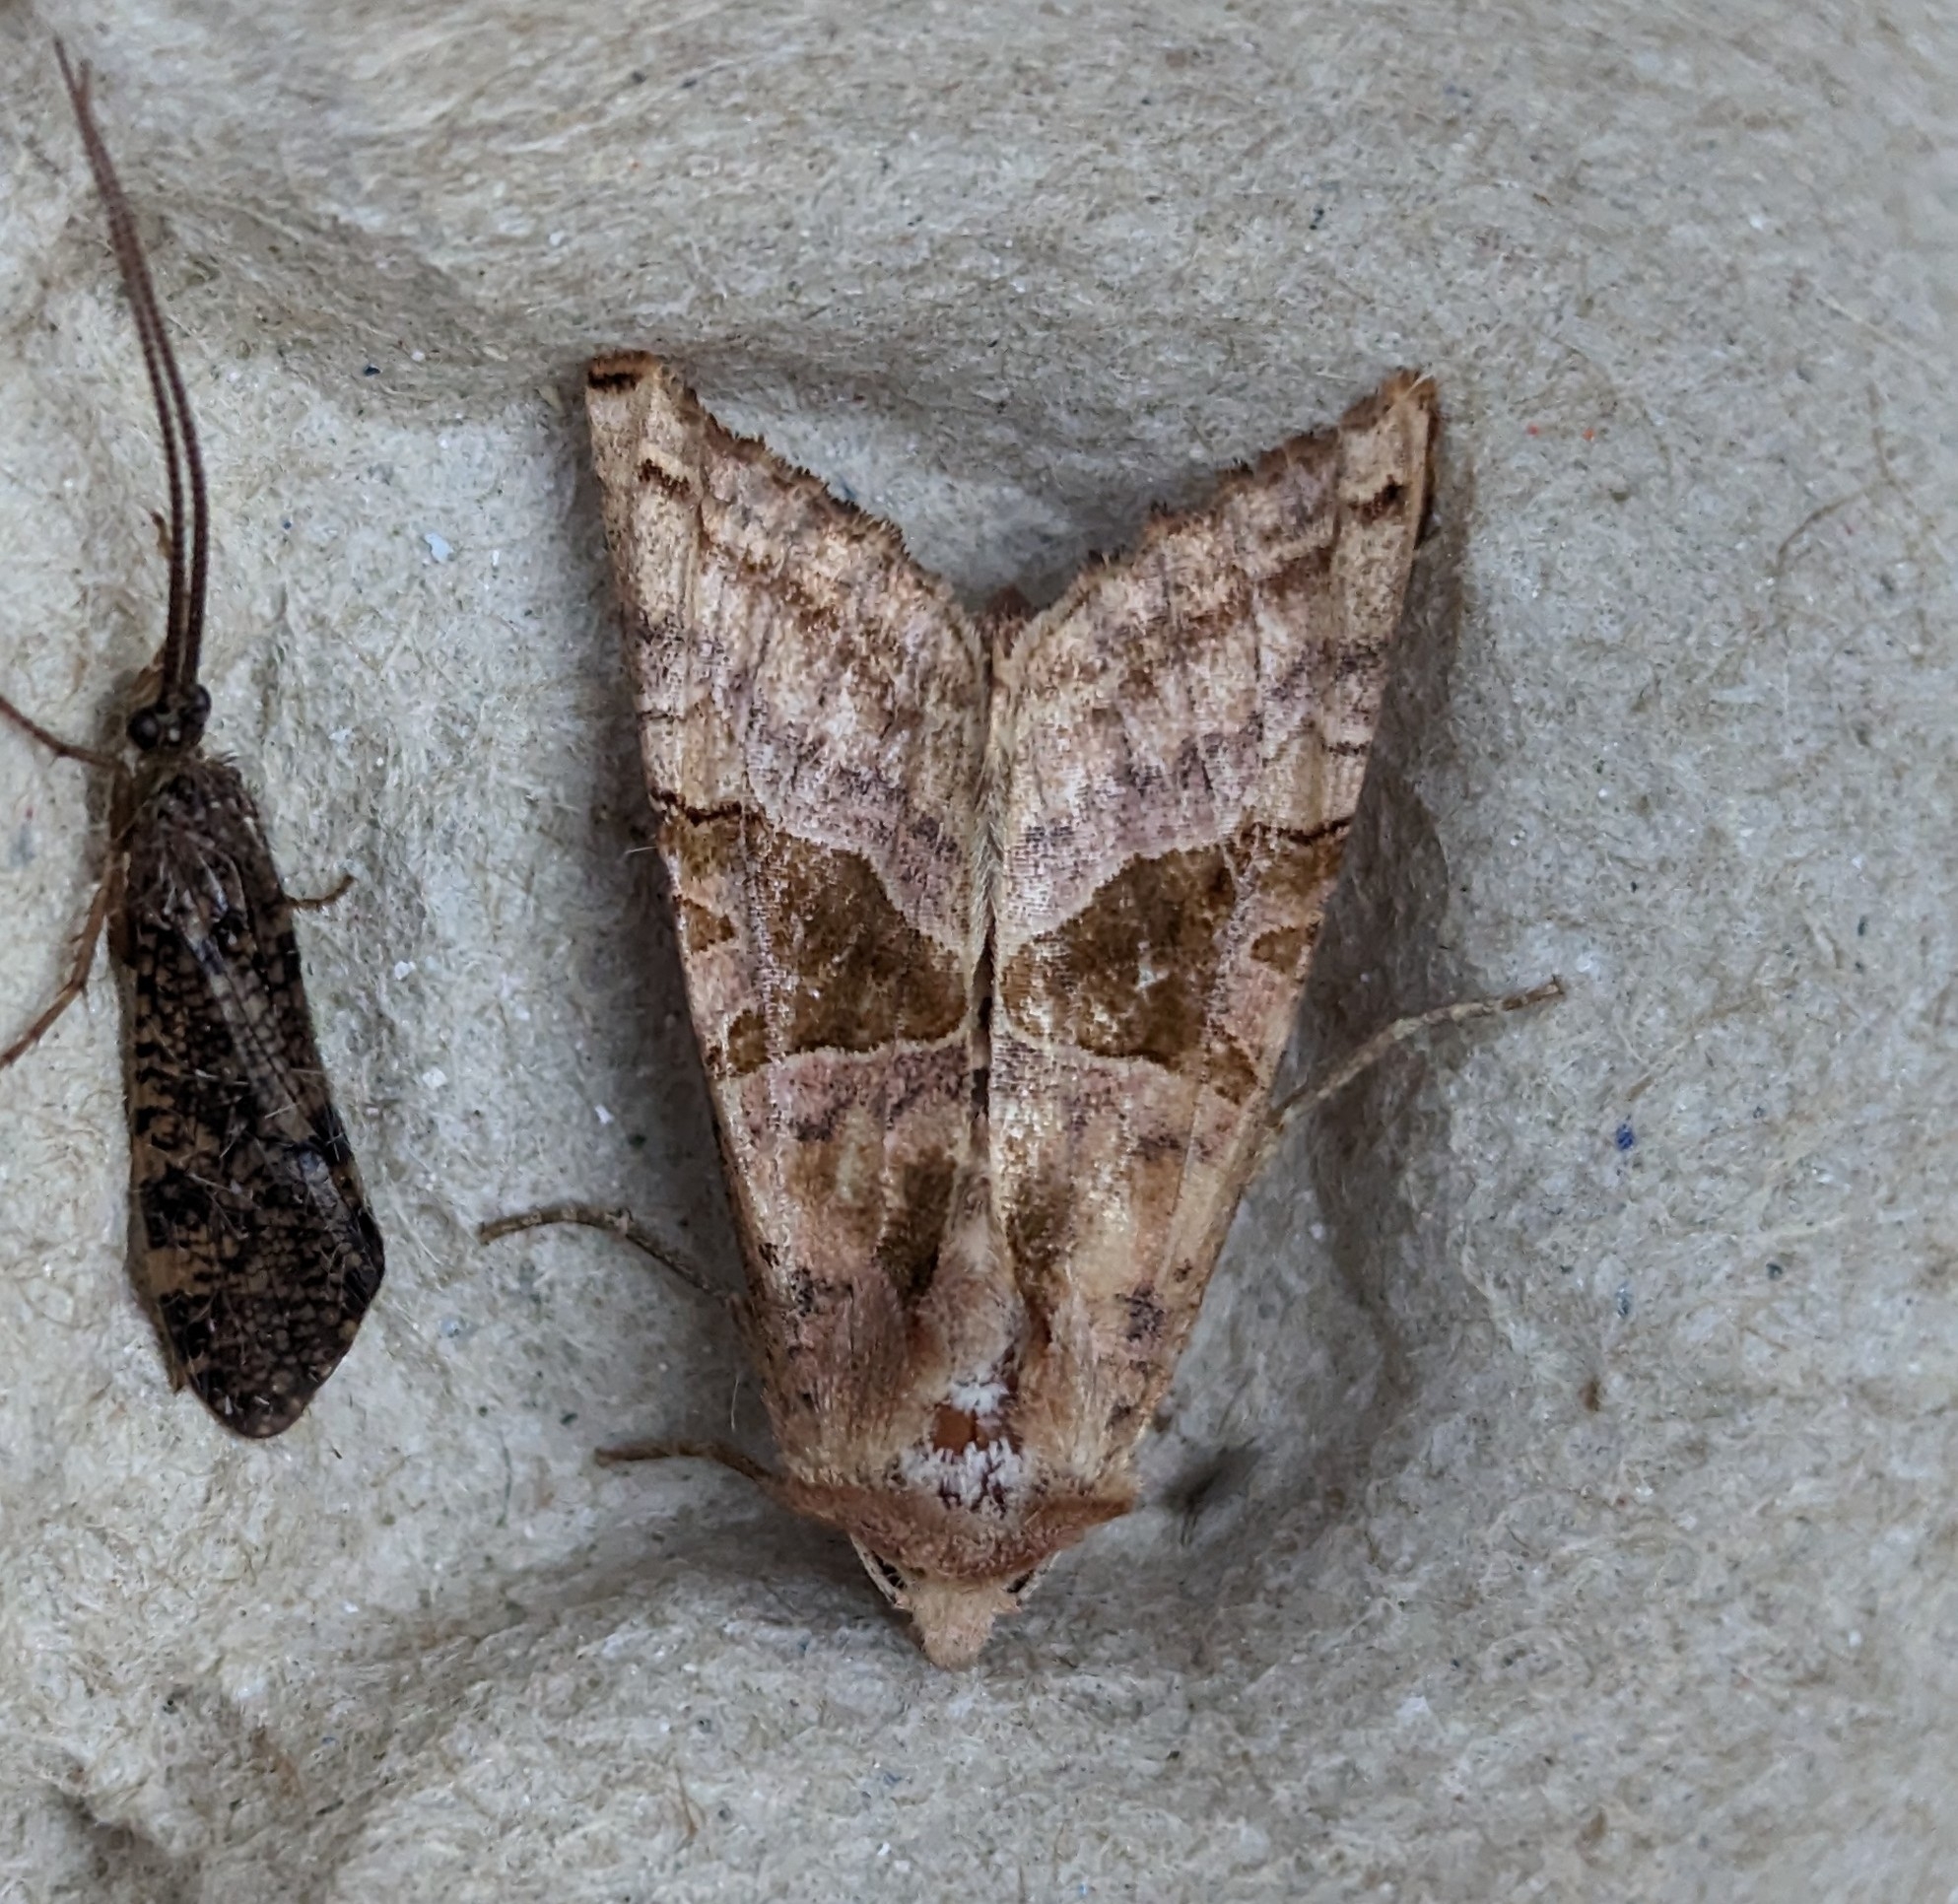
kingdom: Animalia
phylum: Arthropoda
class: Insecta
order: Lepidoptera
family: Noctuidae
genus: Phlogophora
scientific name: Phlogophora periculosa
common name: Brown angle shades
